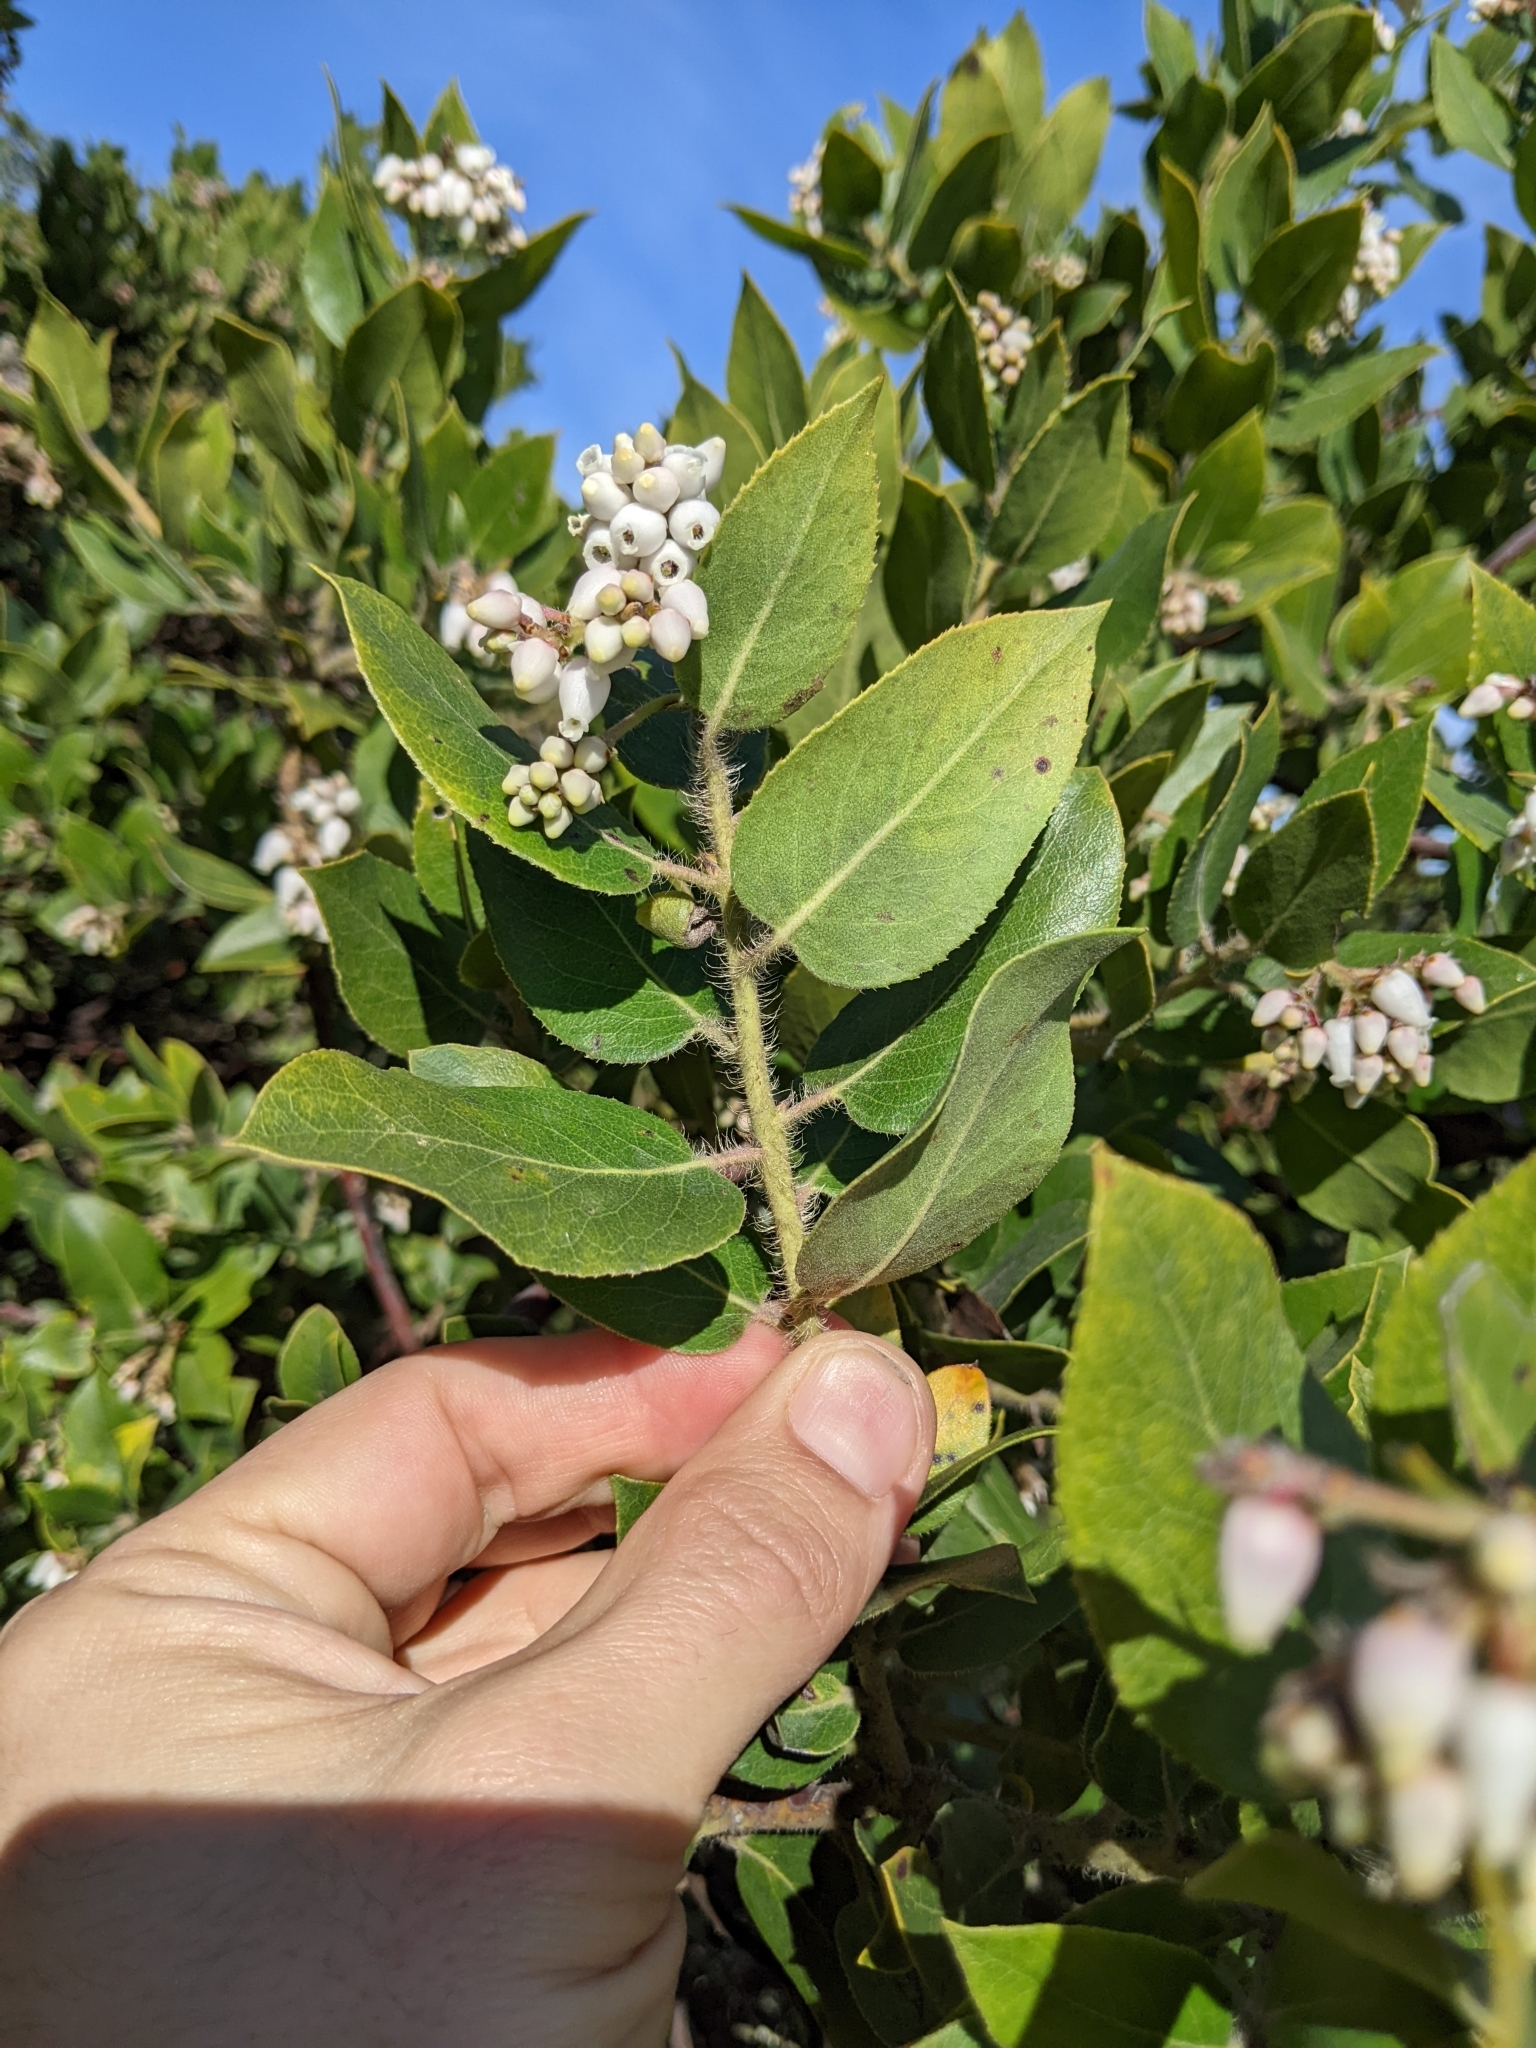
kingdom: Plantae
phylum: Tracheophyta
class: Magnoliopsida
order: Ericales
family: Ericaceae
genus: Arctostaphylos
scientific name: Arctostaphylos crustacea
